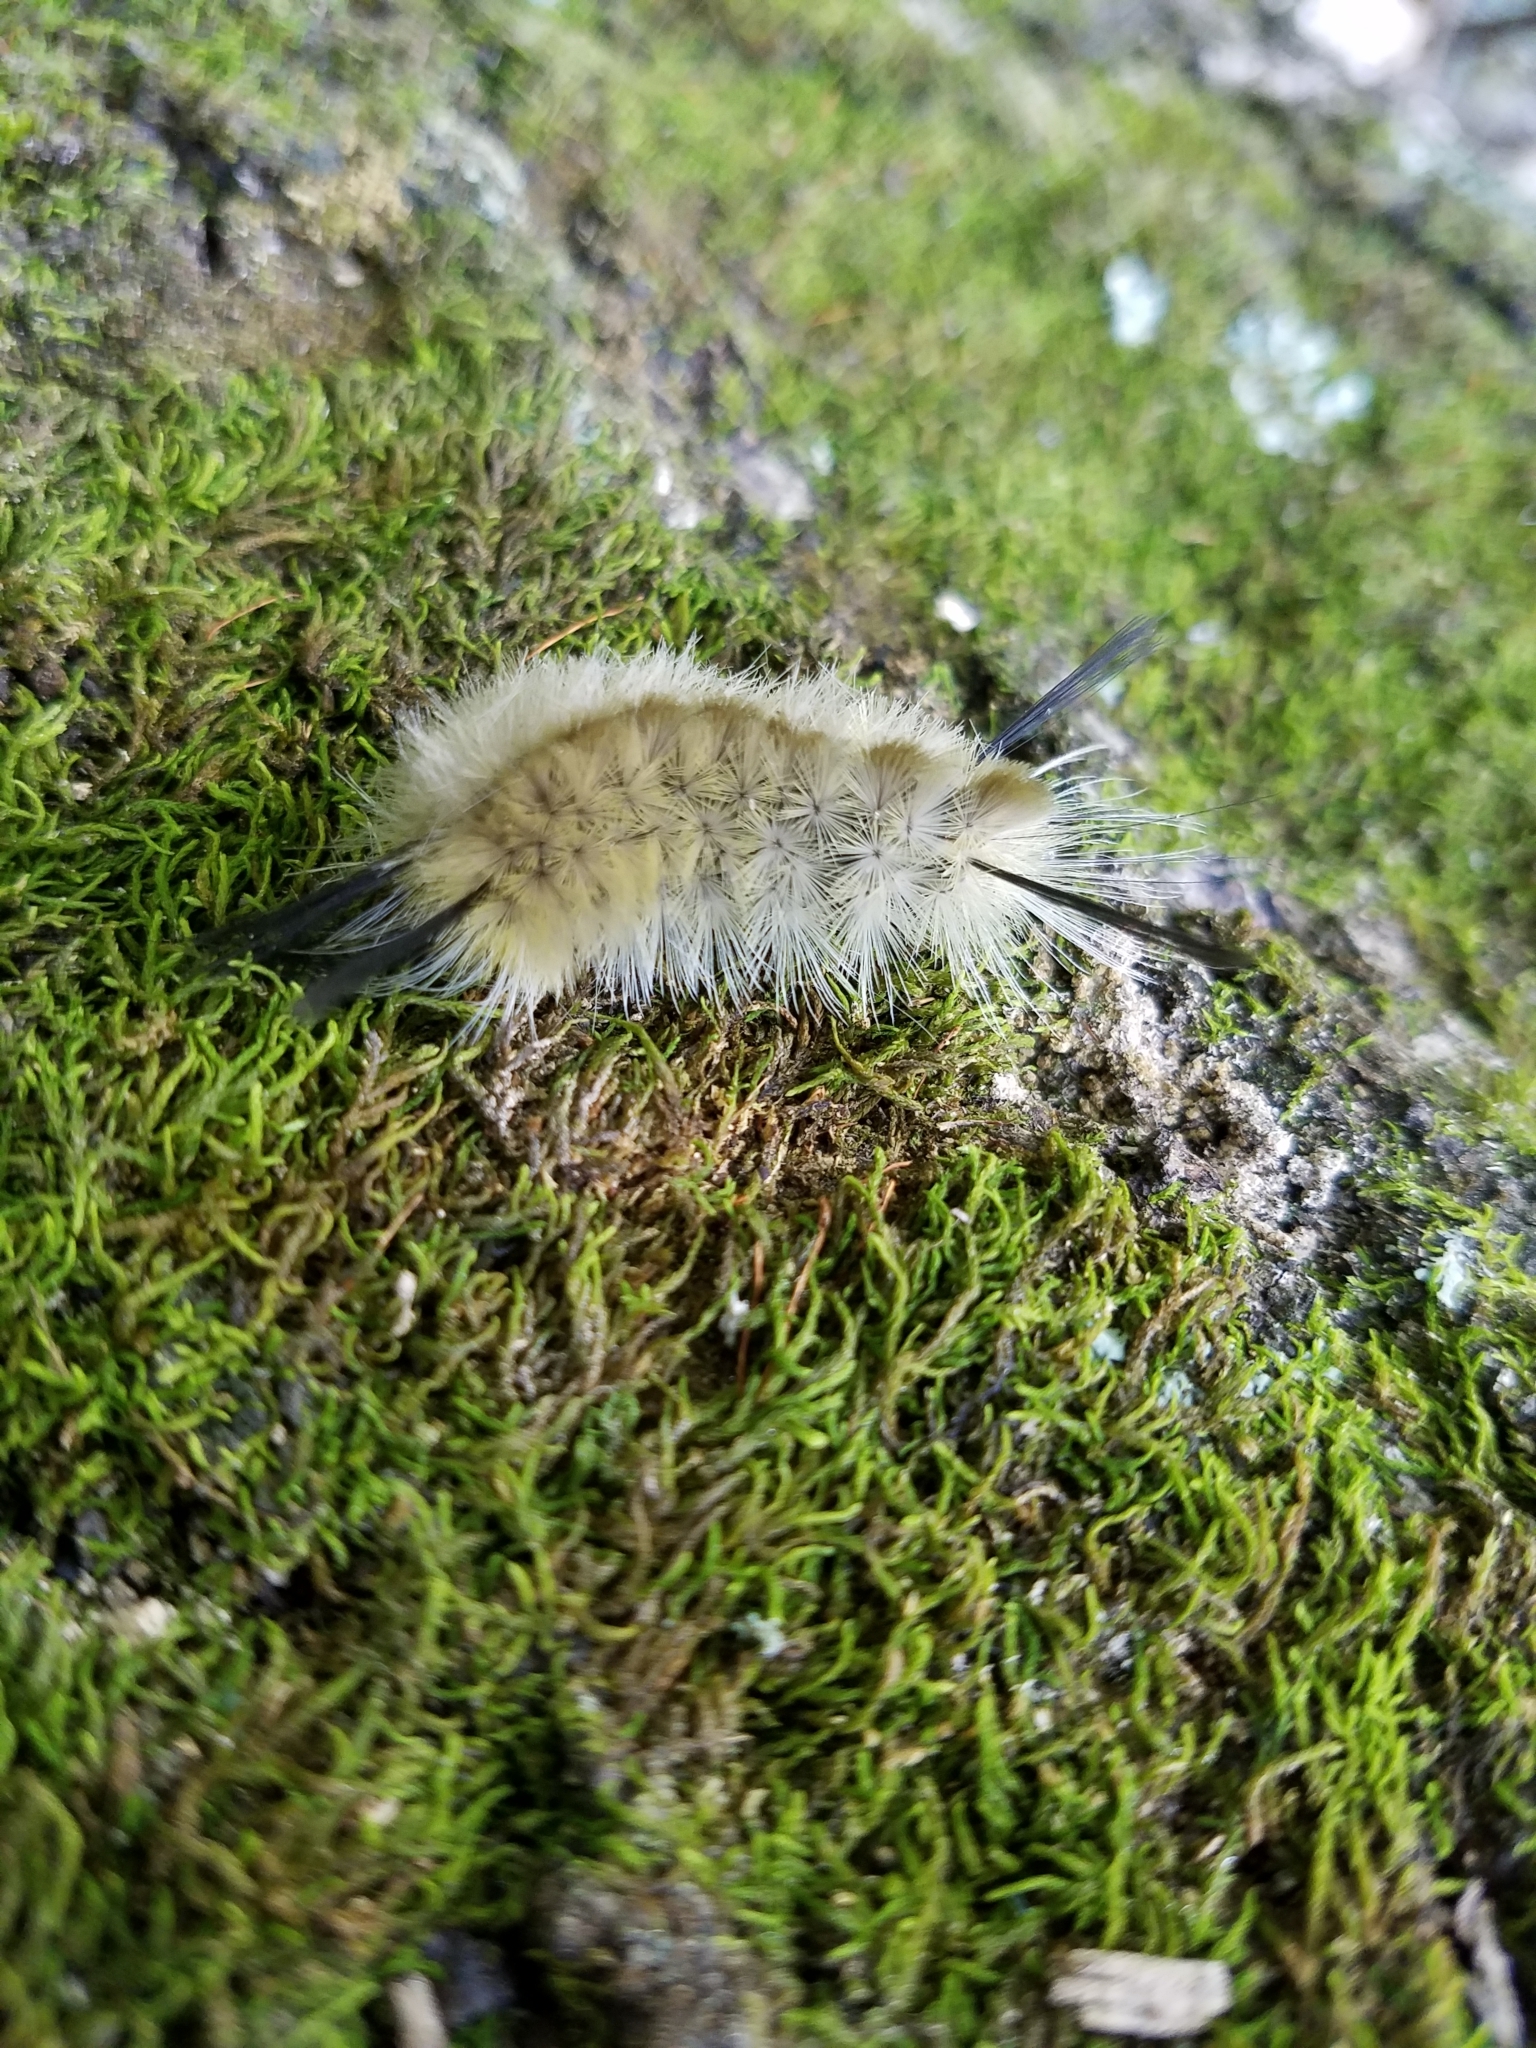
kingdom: Animalia
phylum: Arthropoda
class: Insecta
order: Lepidoptera
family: Erebidae
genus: Halysidota
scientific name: Halysidota tessellaris
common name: Banded tussock moth
